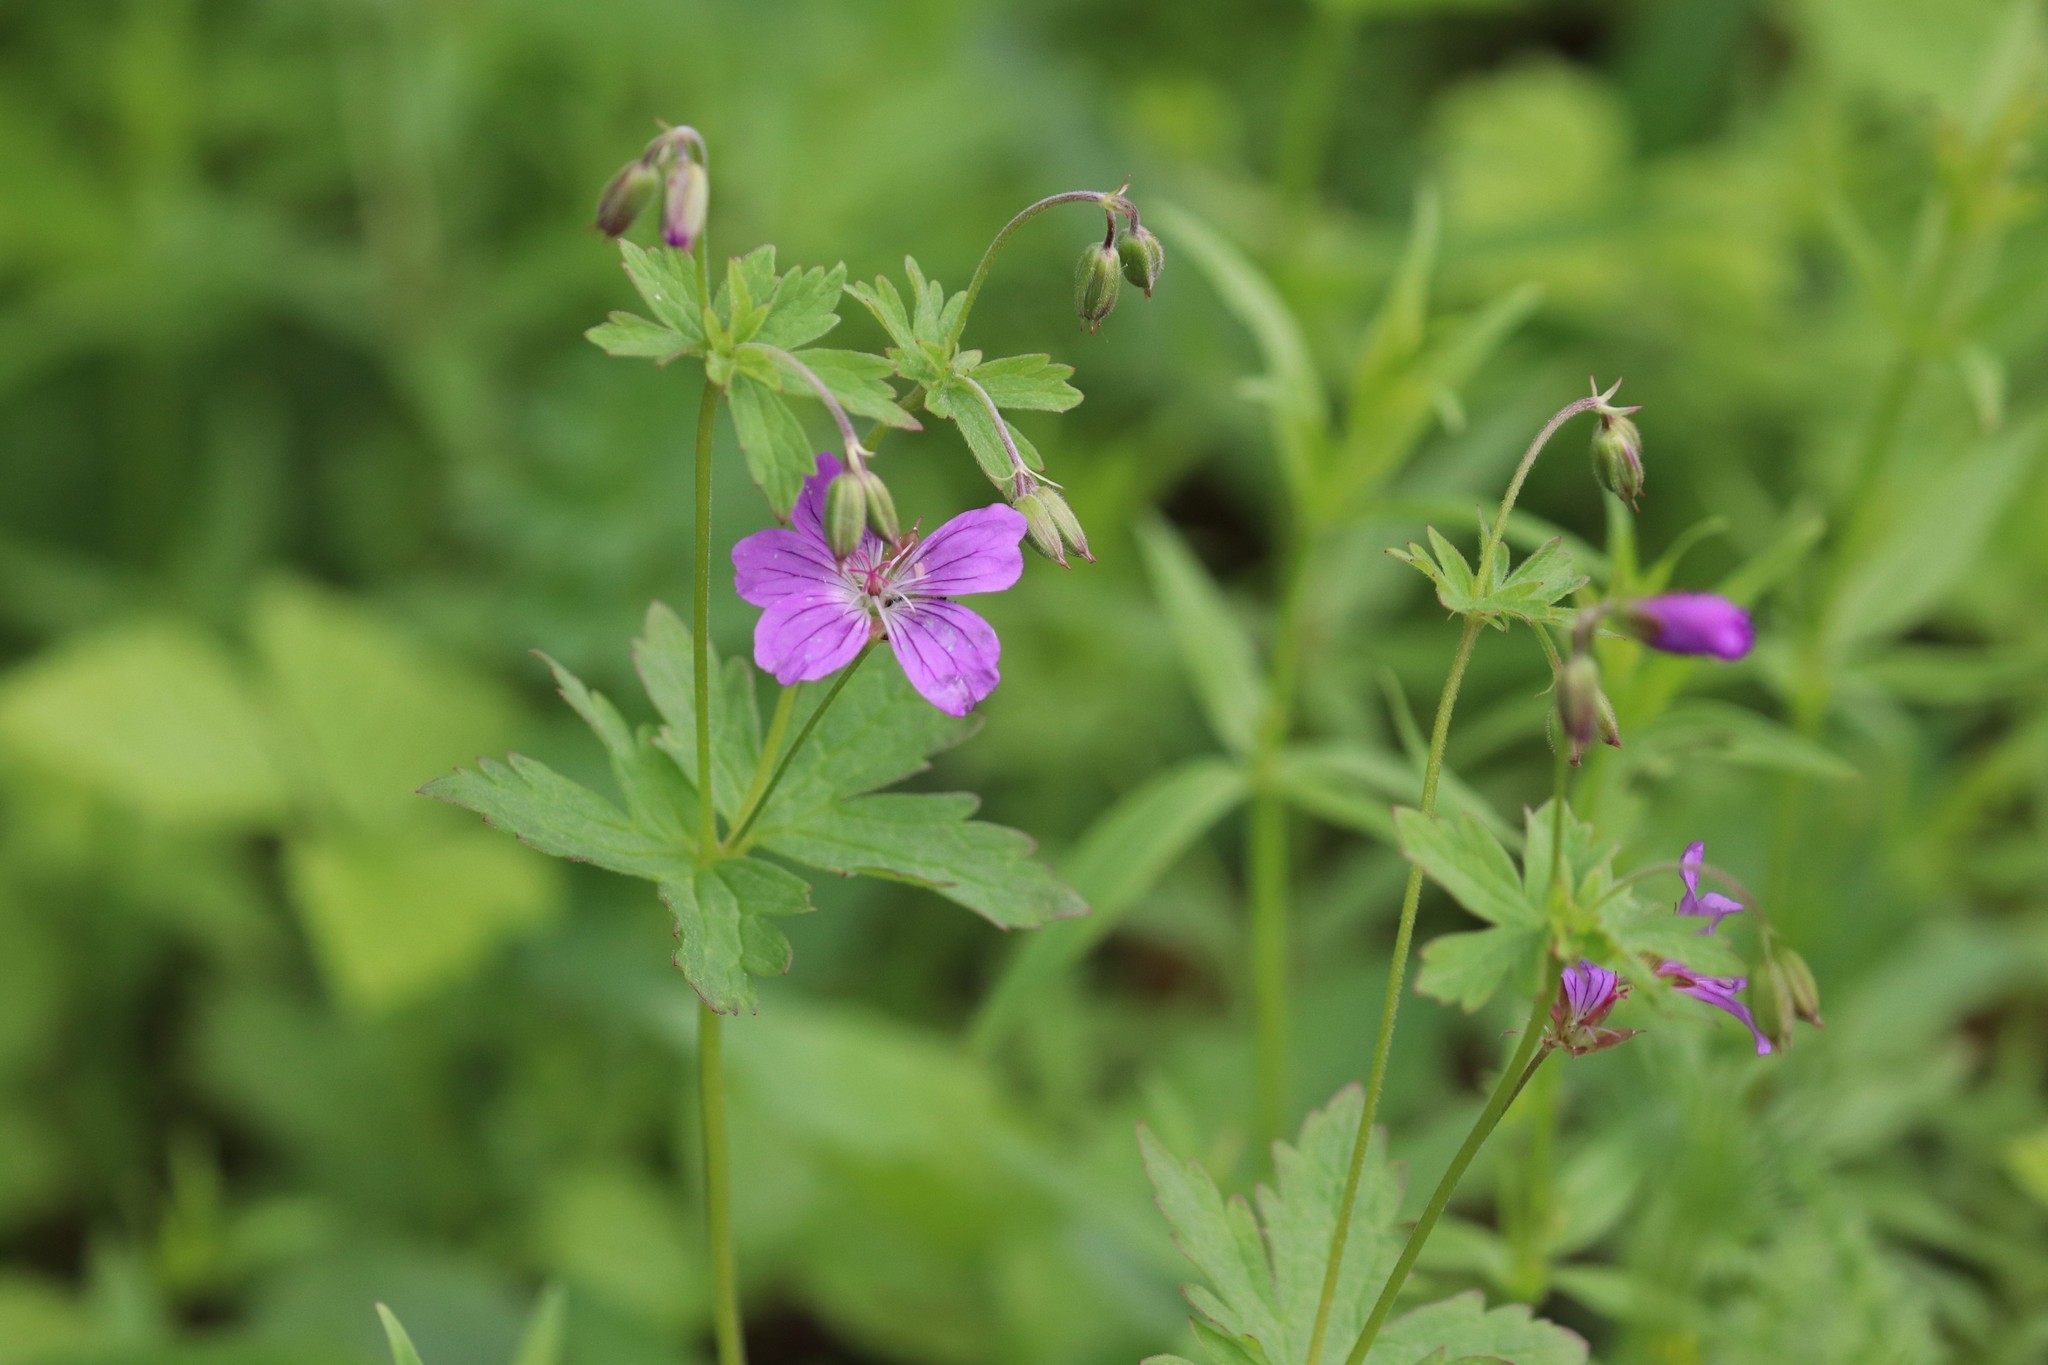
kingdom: Plantae
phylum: Tracheophyta
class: Magnoliopsida
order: Geraniales
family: Geraniaceae
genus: Geranium
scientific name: Geranium sylvaticum
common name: Wood crane's-bill
